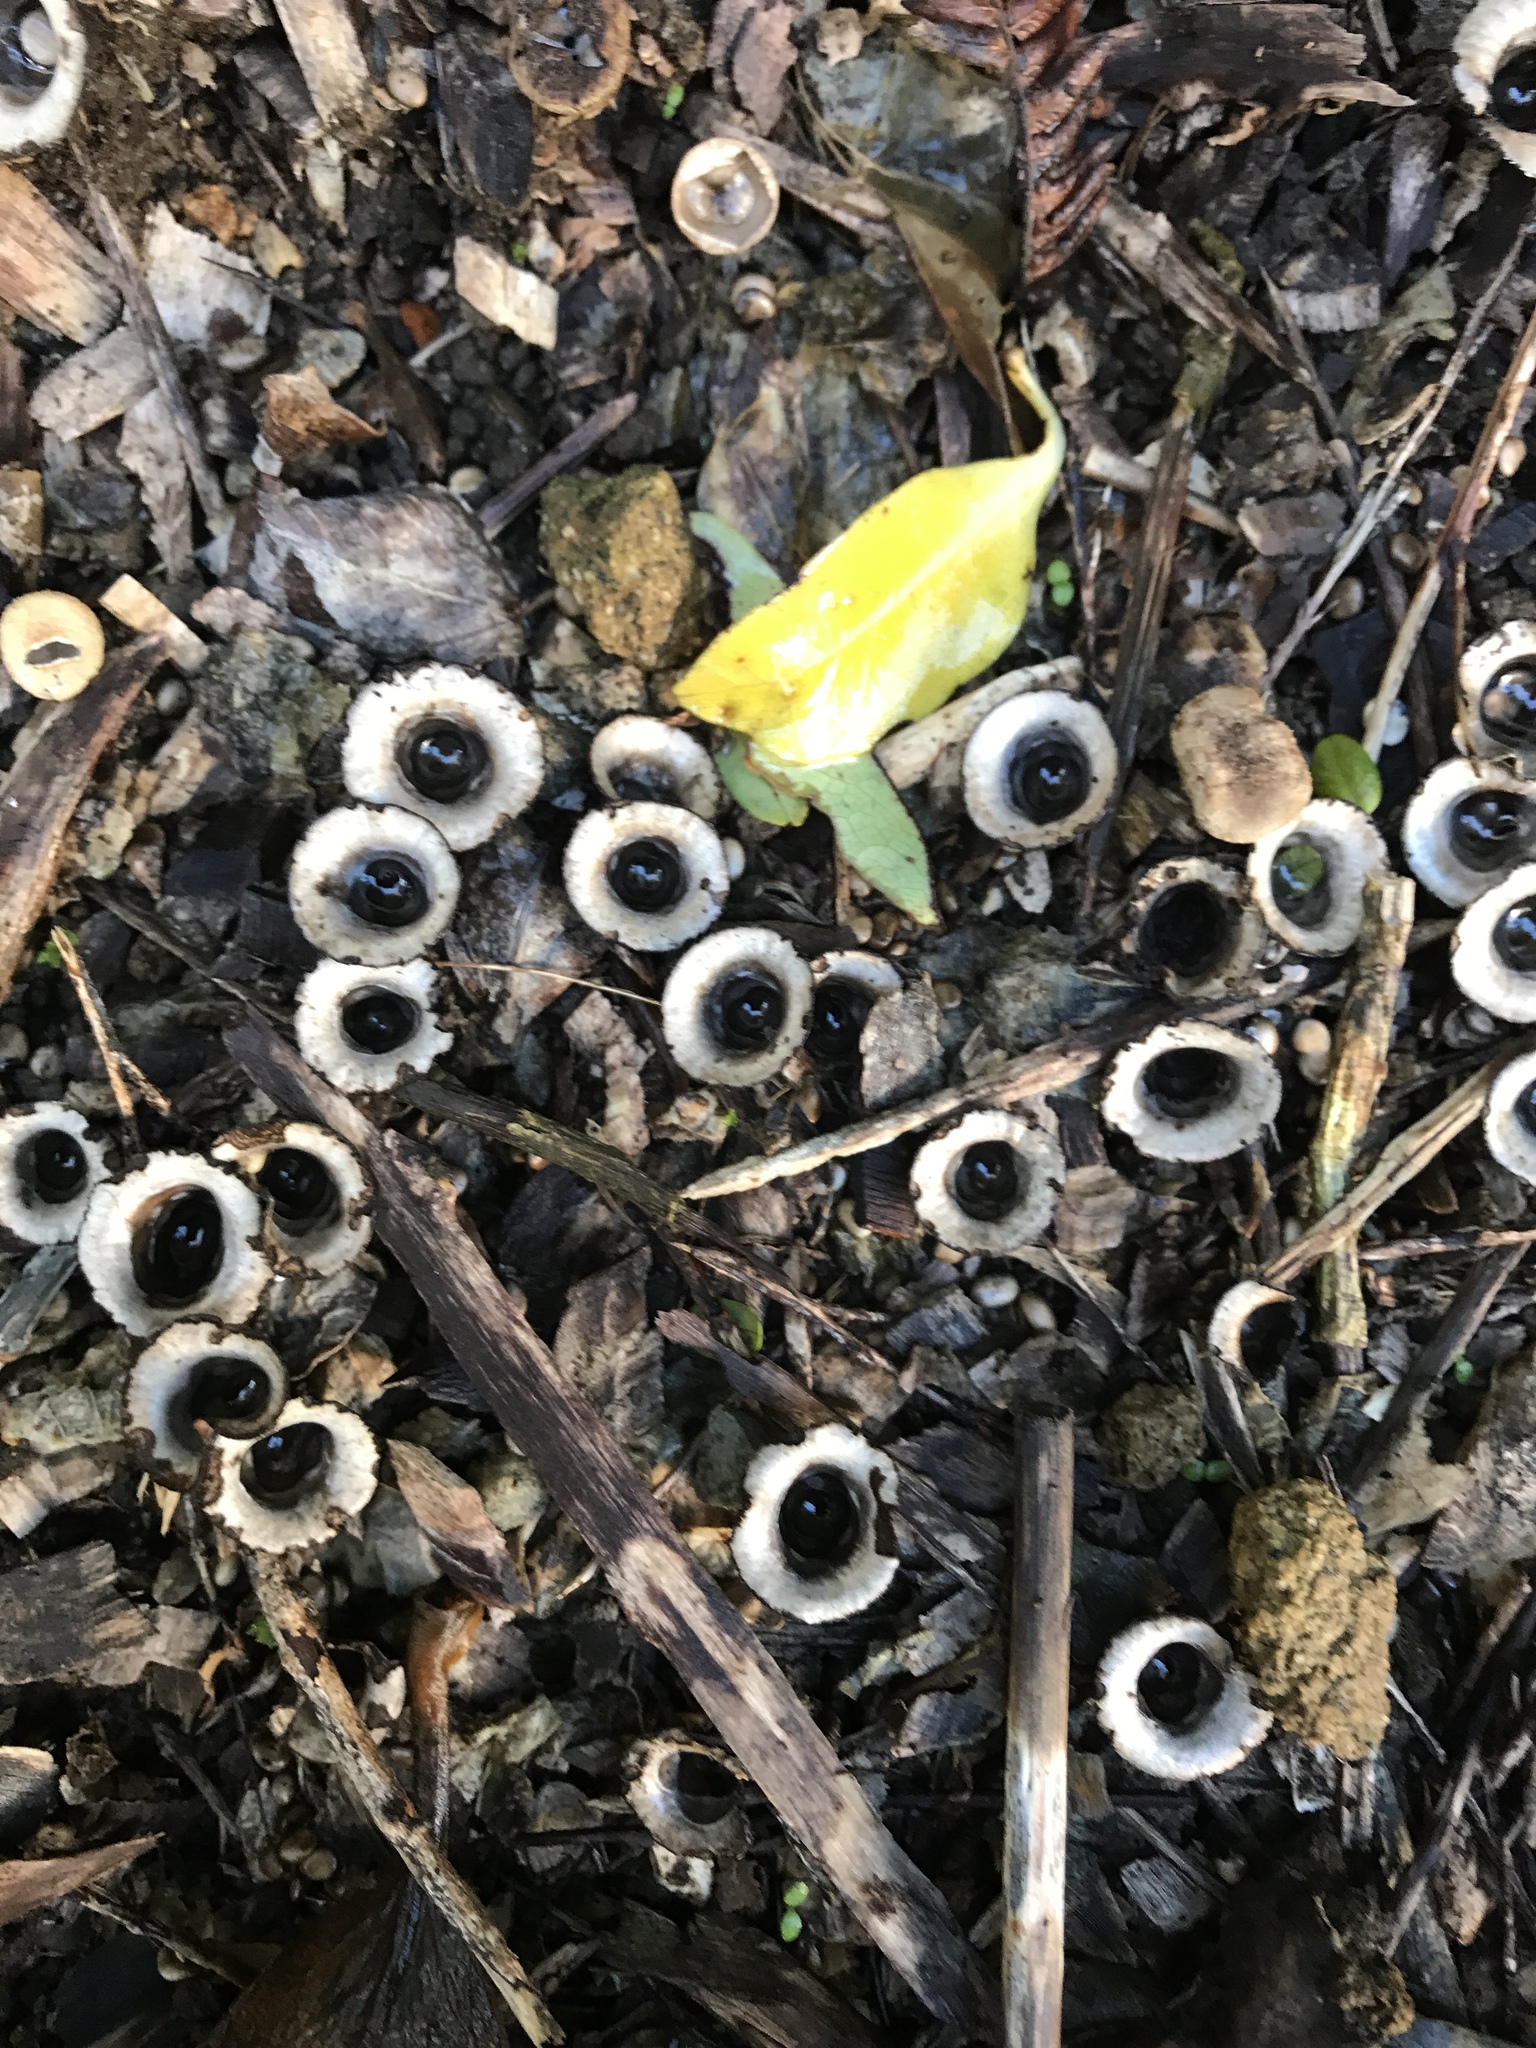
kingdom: Fungi
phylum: Basidiomycota
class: Agaricomycetes
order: Agaricales
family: Agaricaceae
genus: Cyathus
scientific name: Cyathus olla
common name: Field bird's nest
